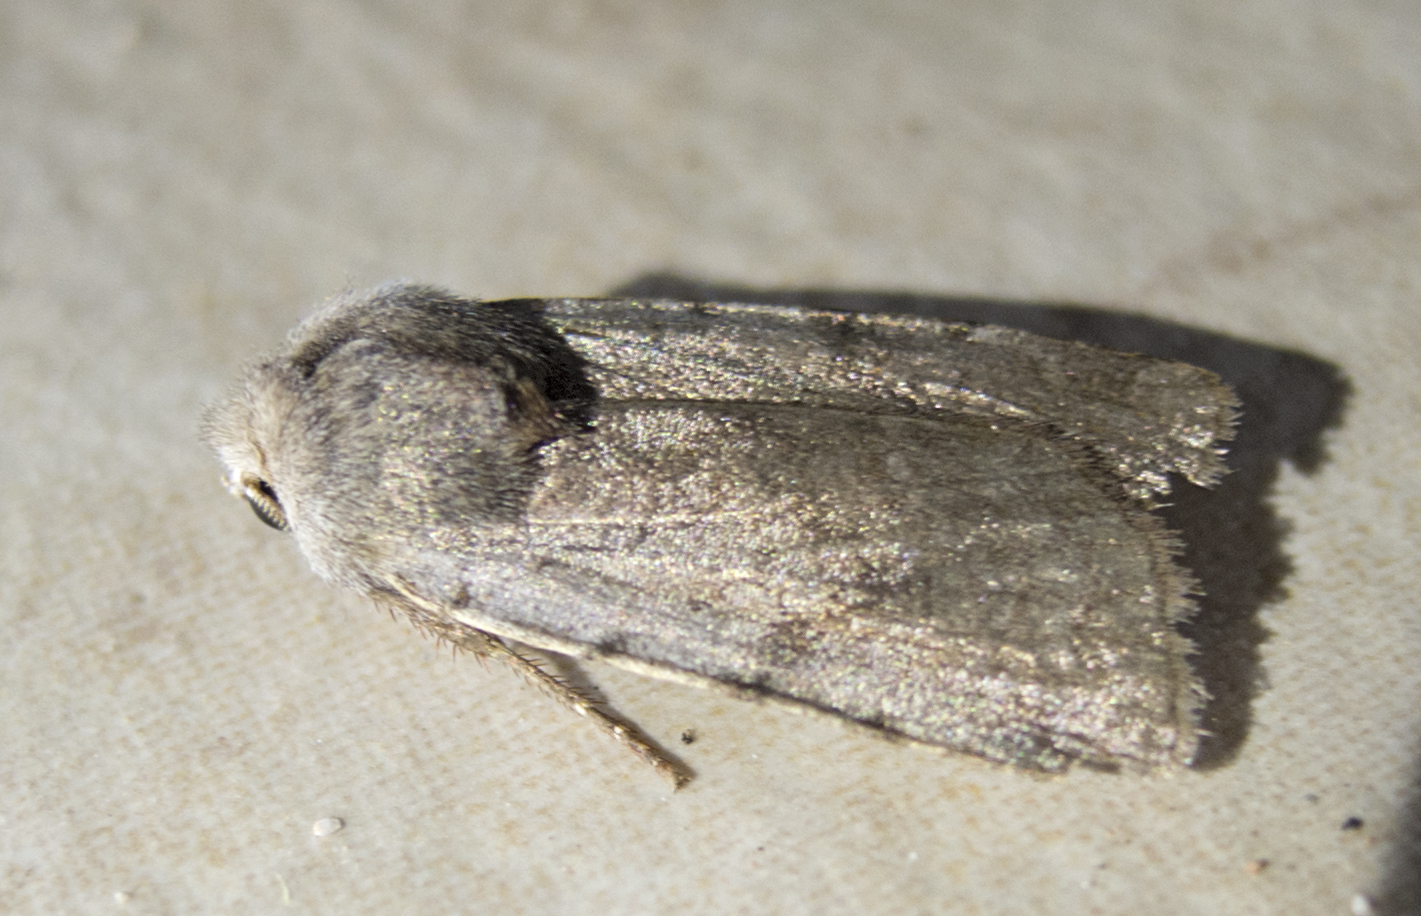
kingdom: Animalia
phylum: Arthropoda
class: Insecta
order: Lepidoptera
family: Noctuidae
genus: Cerastis
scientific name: Cerastis rubricosa
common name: Red chestnut
